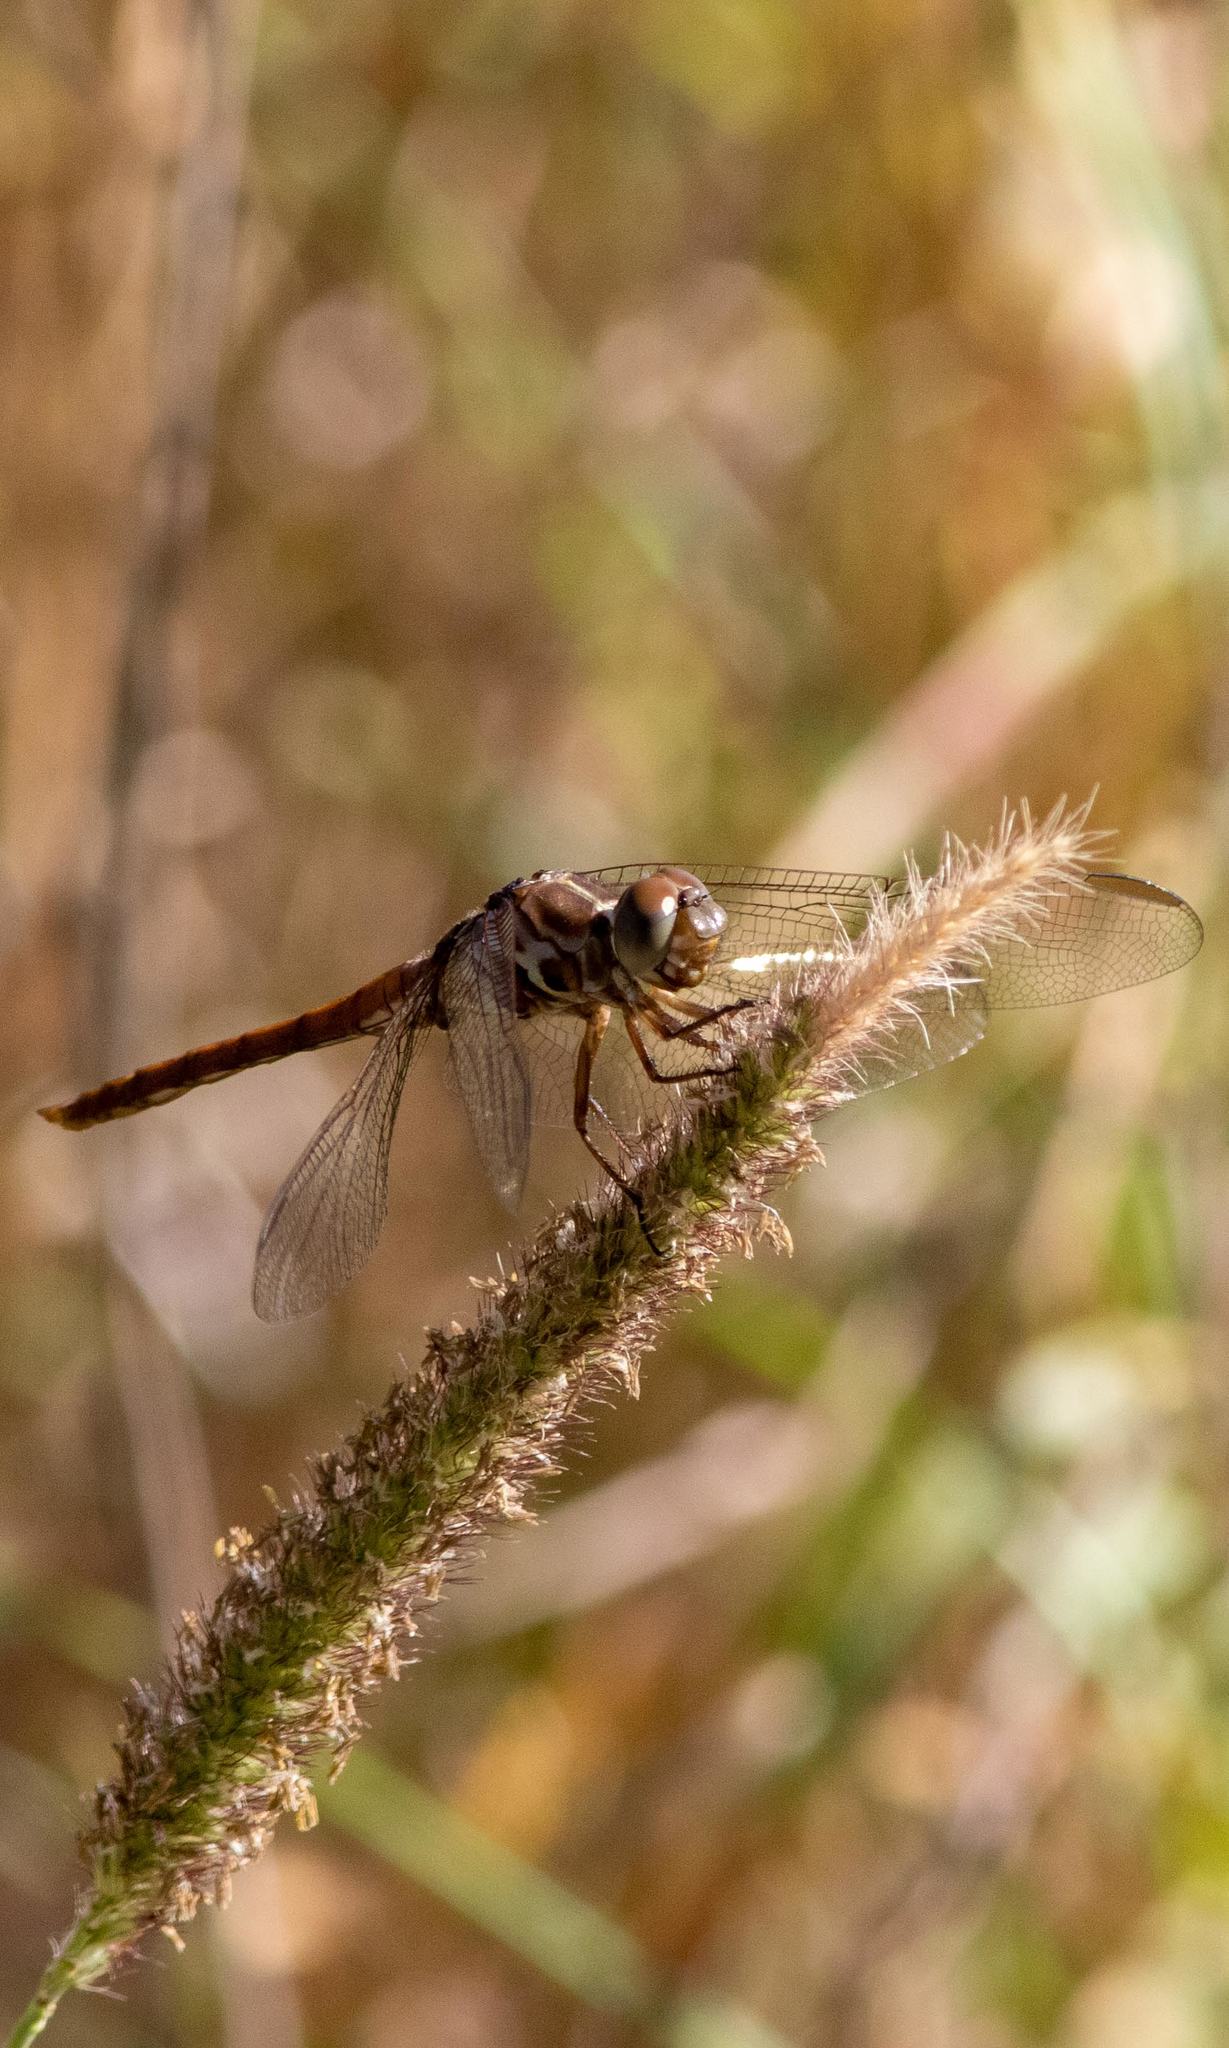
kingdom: Animalia
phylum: Arthropoda
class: Insecta
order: Odonata
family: Libellulidae
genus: Orthemis
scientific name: Orthemis ferruginea
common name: Roseate skimmer
